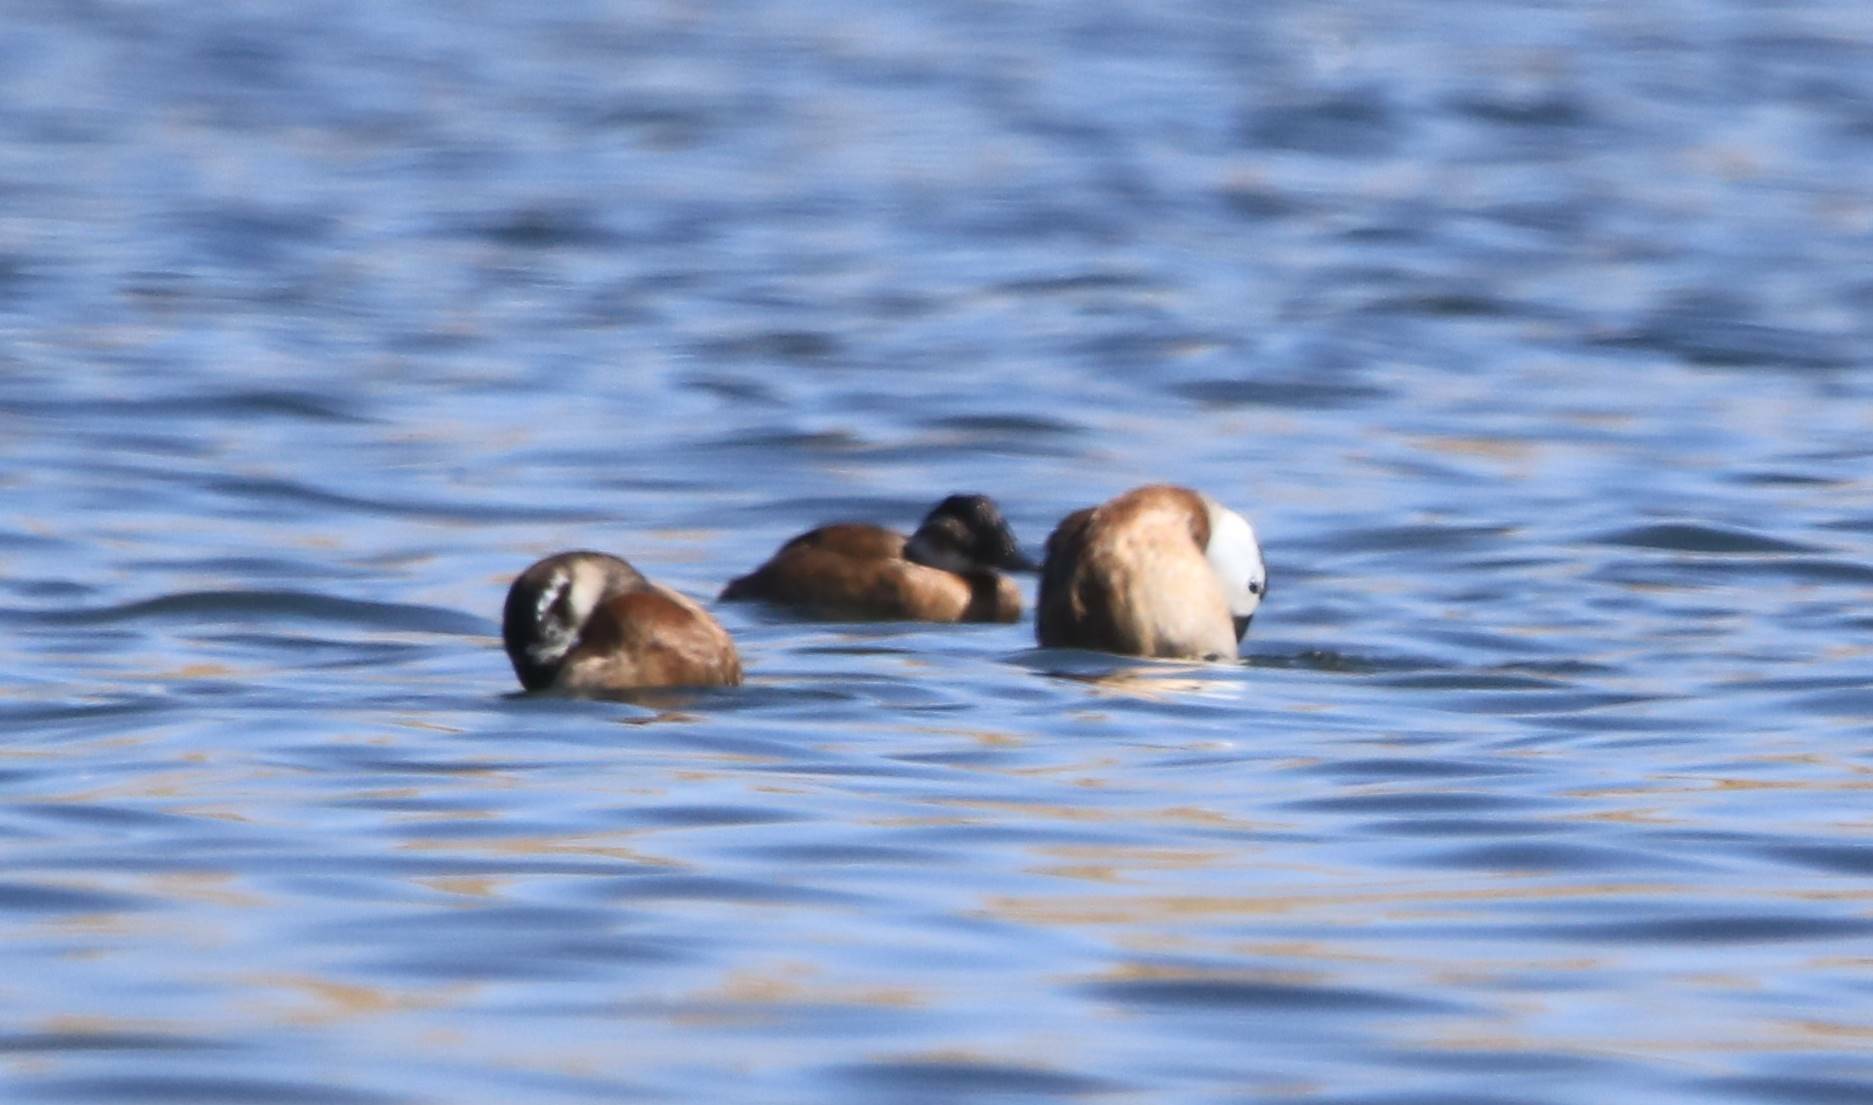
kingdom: Animalia
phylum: Chordata
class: Aves
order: Anseriformes
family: Anatidae
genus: Oxyura
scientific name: Oxyura leucocephala
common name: White-headed duck
